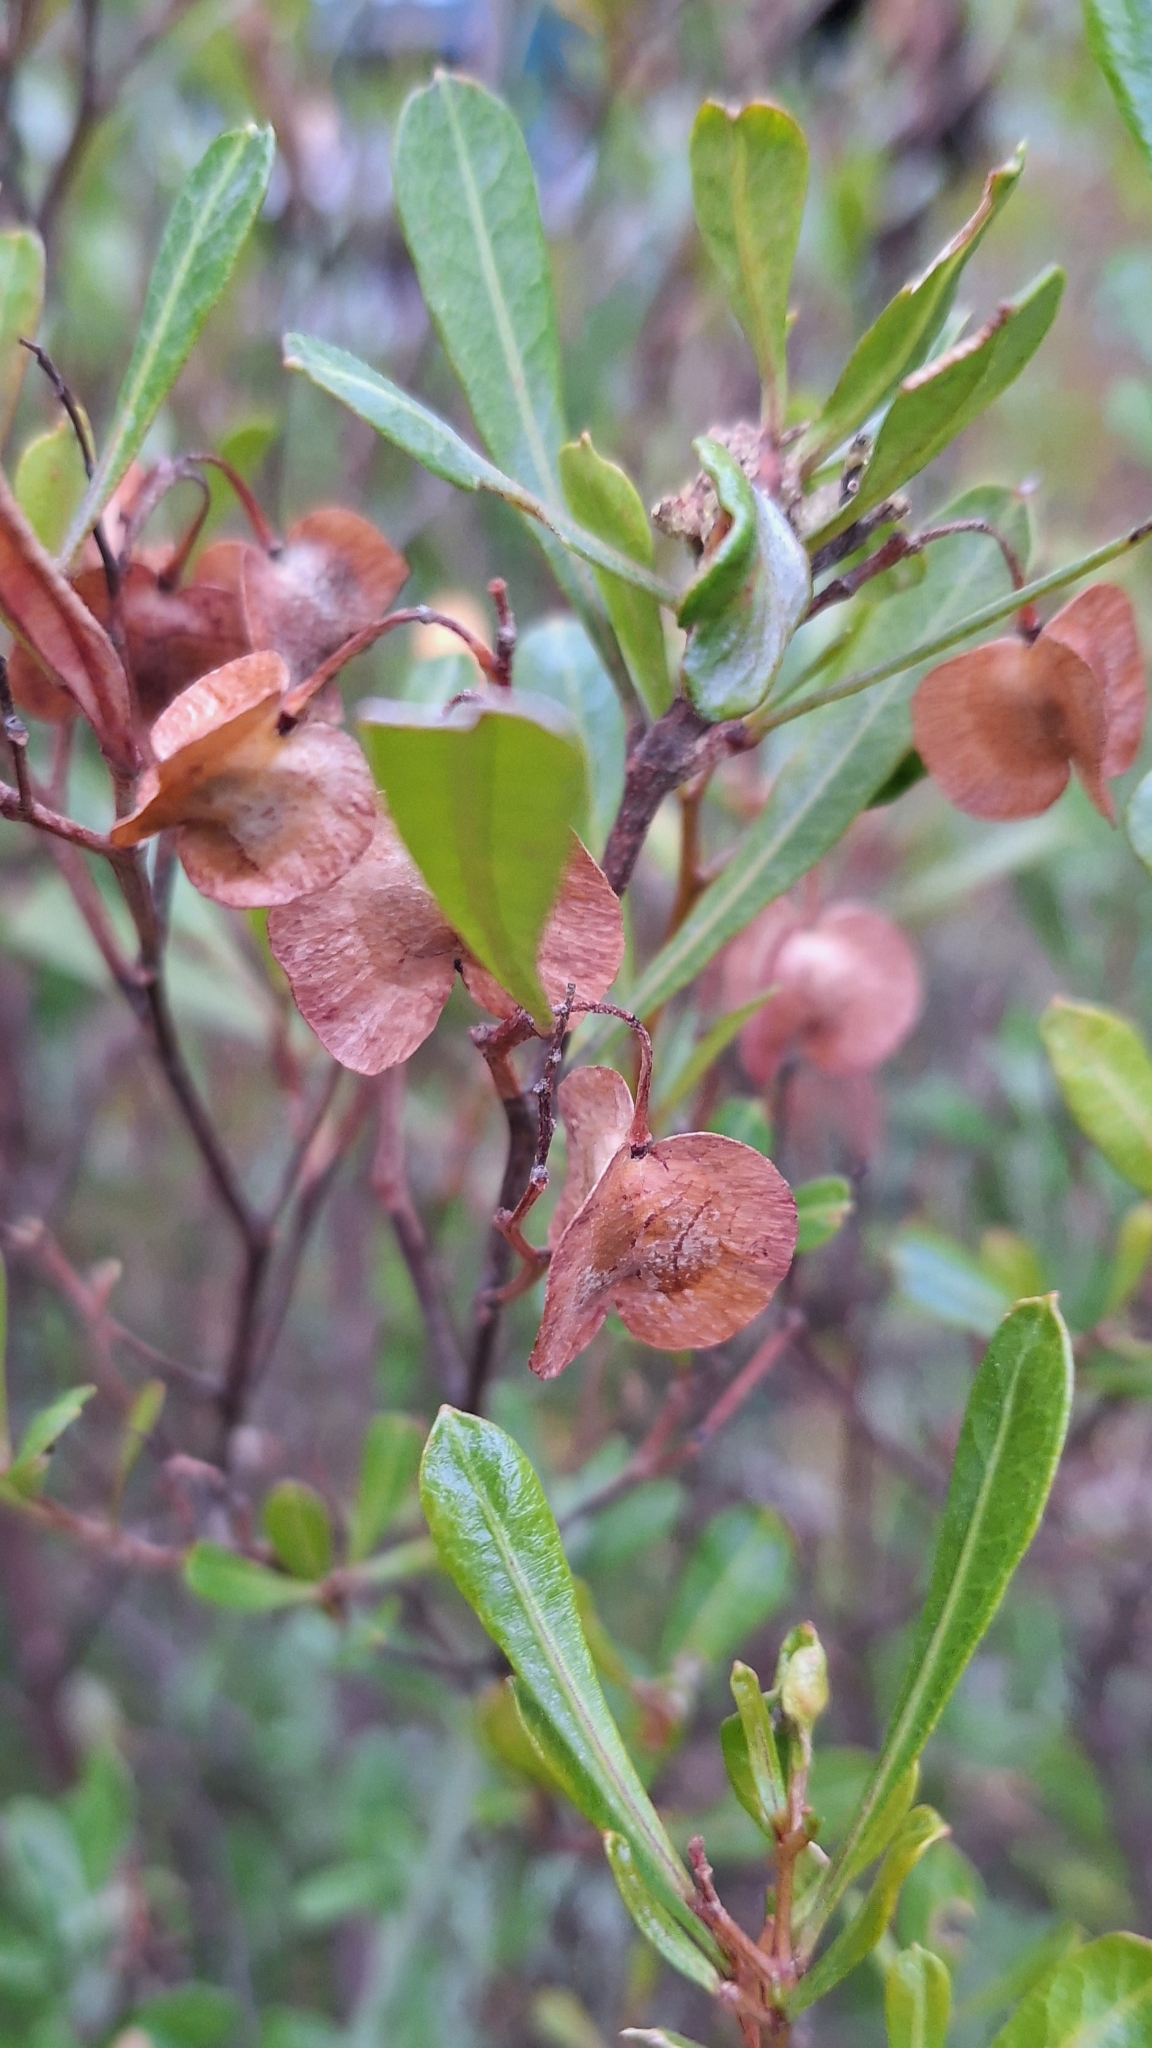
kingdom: Plantae
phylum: Tracheophyta
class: Magnoliopsida
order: Sapindales
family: Sapindaceae
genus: Dodonaea
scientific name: Dodonaea viscosa
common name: Hopbush
